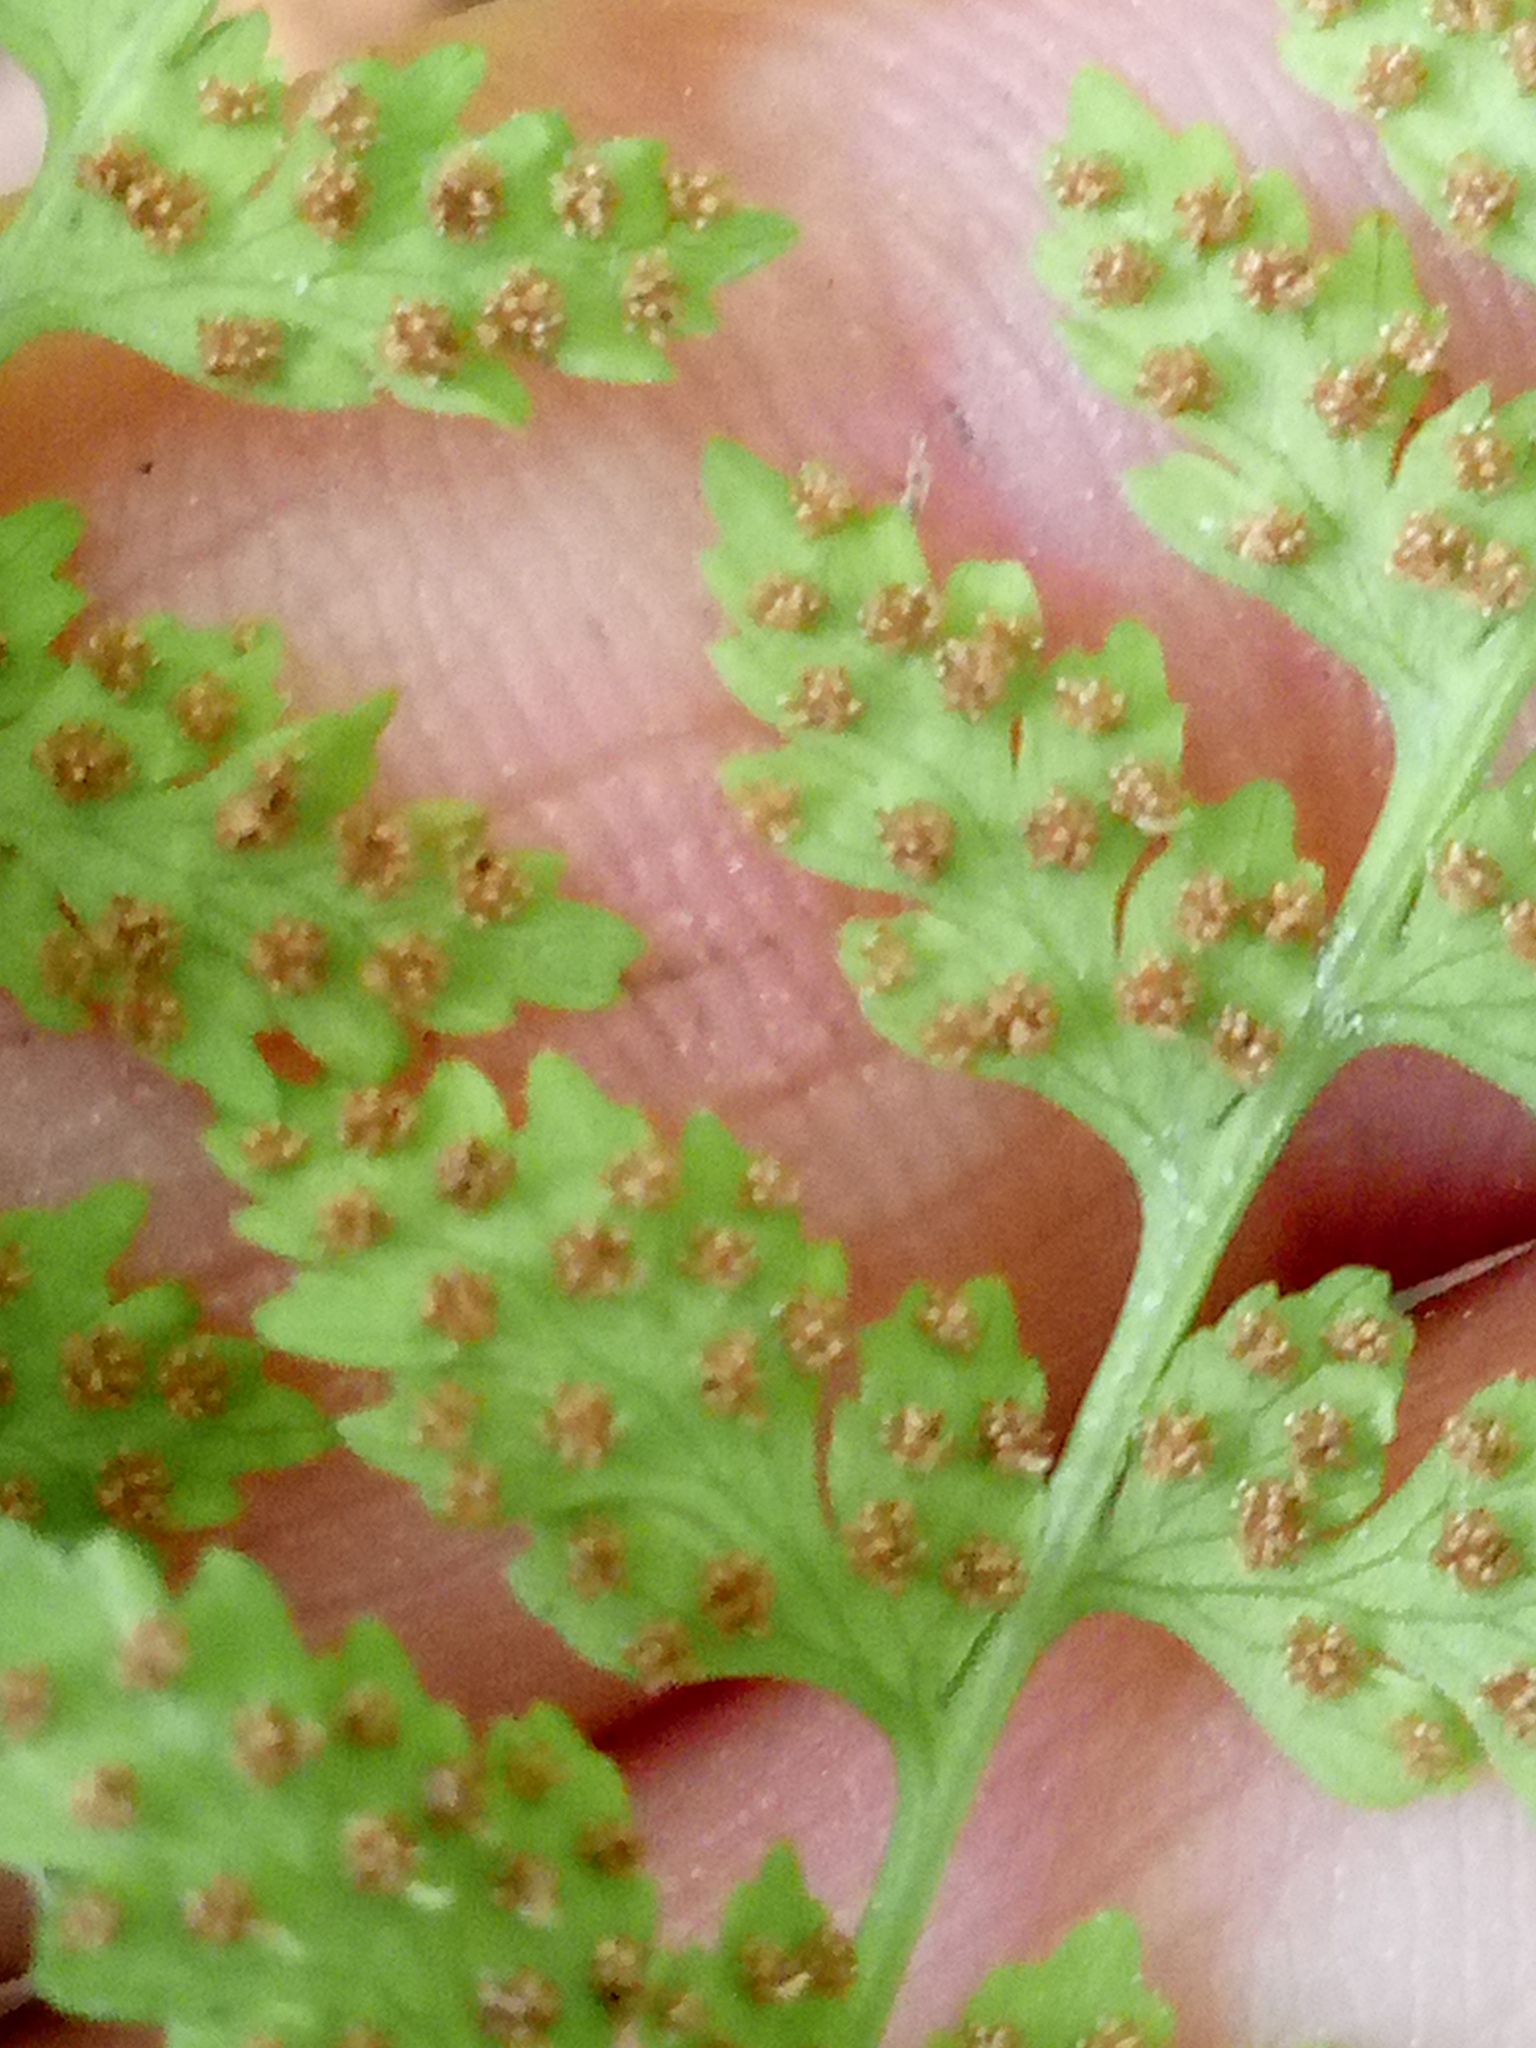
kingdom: Plantae
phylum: Tracheophyta
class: Polypodiopsida
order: Polypodiales
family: Cystopteridaceae
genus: Cystopteris
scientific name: Cystopteris fragilis
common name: Brittle bladder fern
